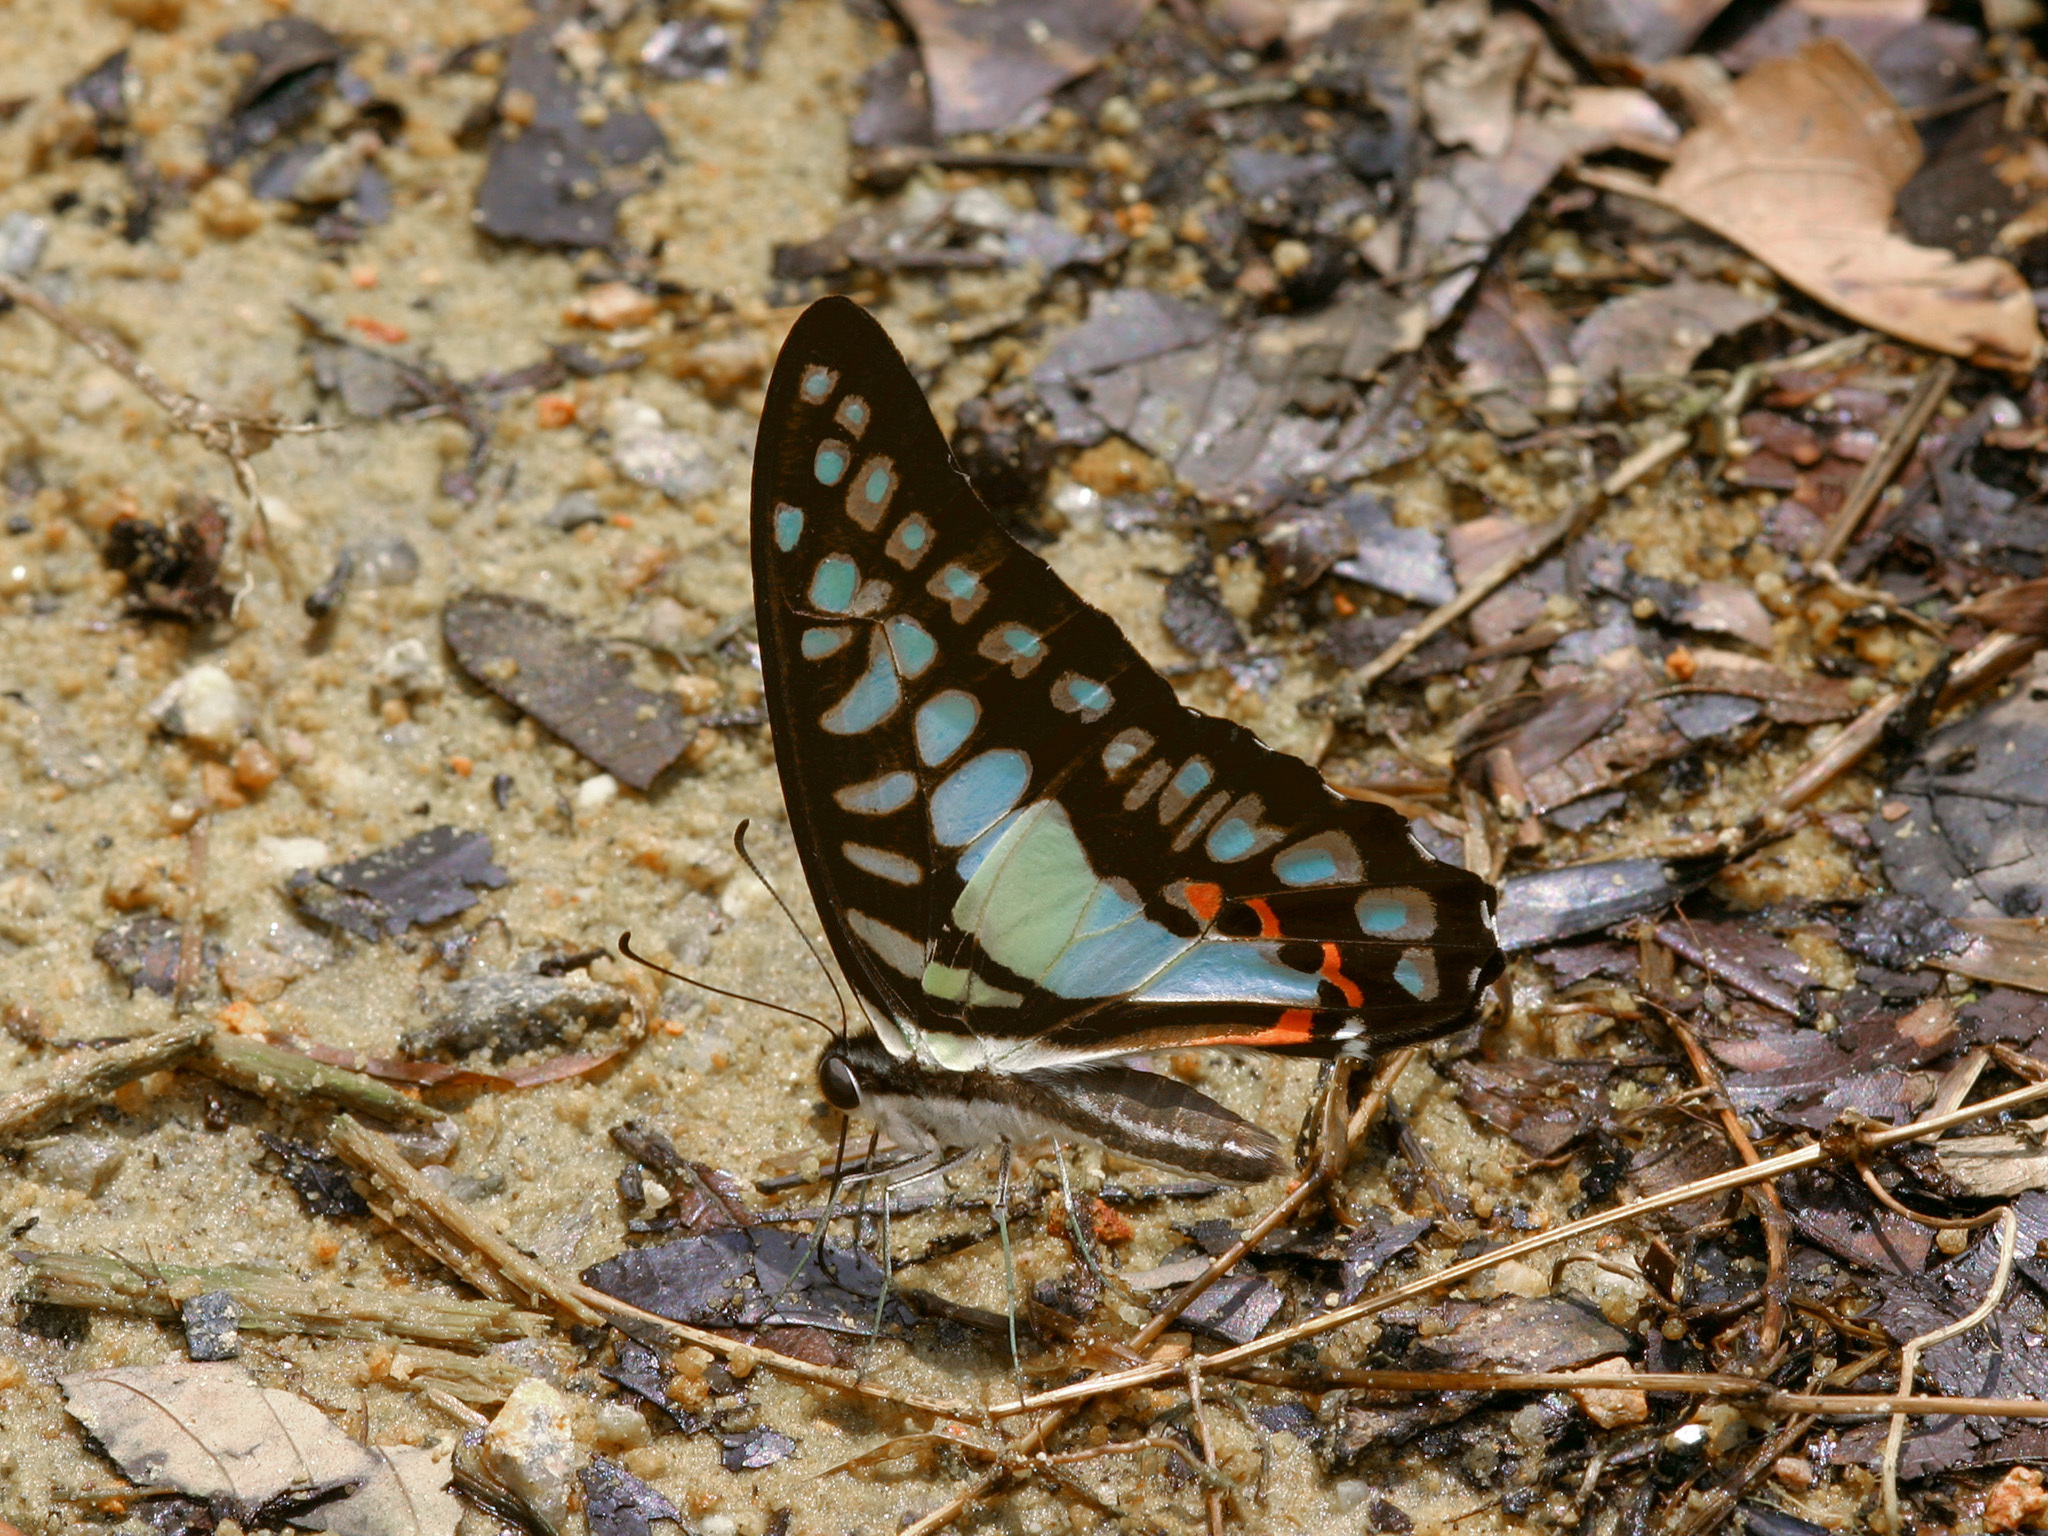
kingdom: Animalia
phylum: Arthropoda
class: Insecta
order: Lepidoptera
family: Papilionidae
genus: Graphium
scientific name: Graphium evemon
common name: Lesser jay
